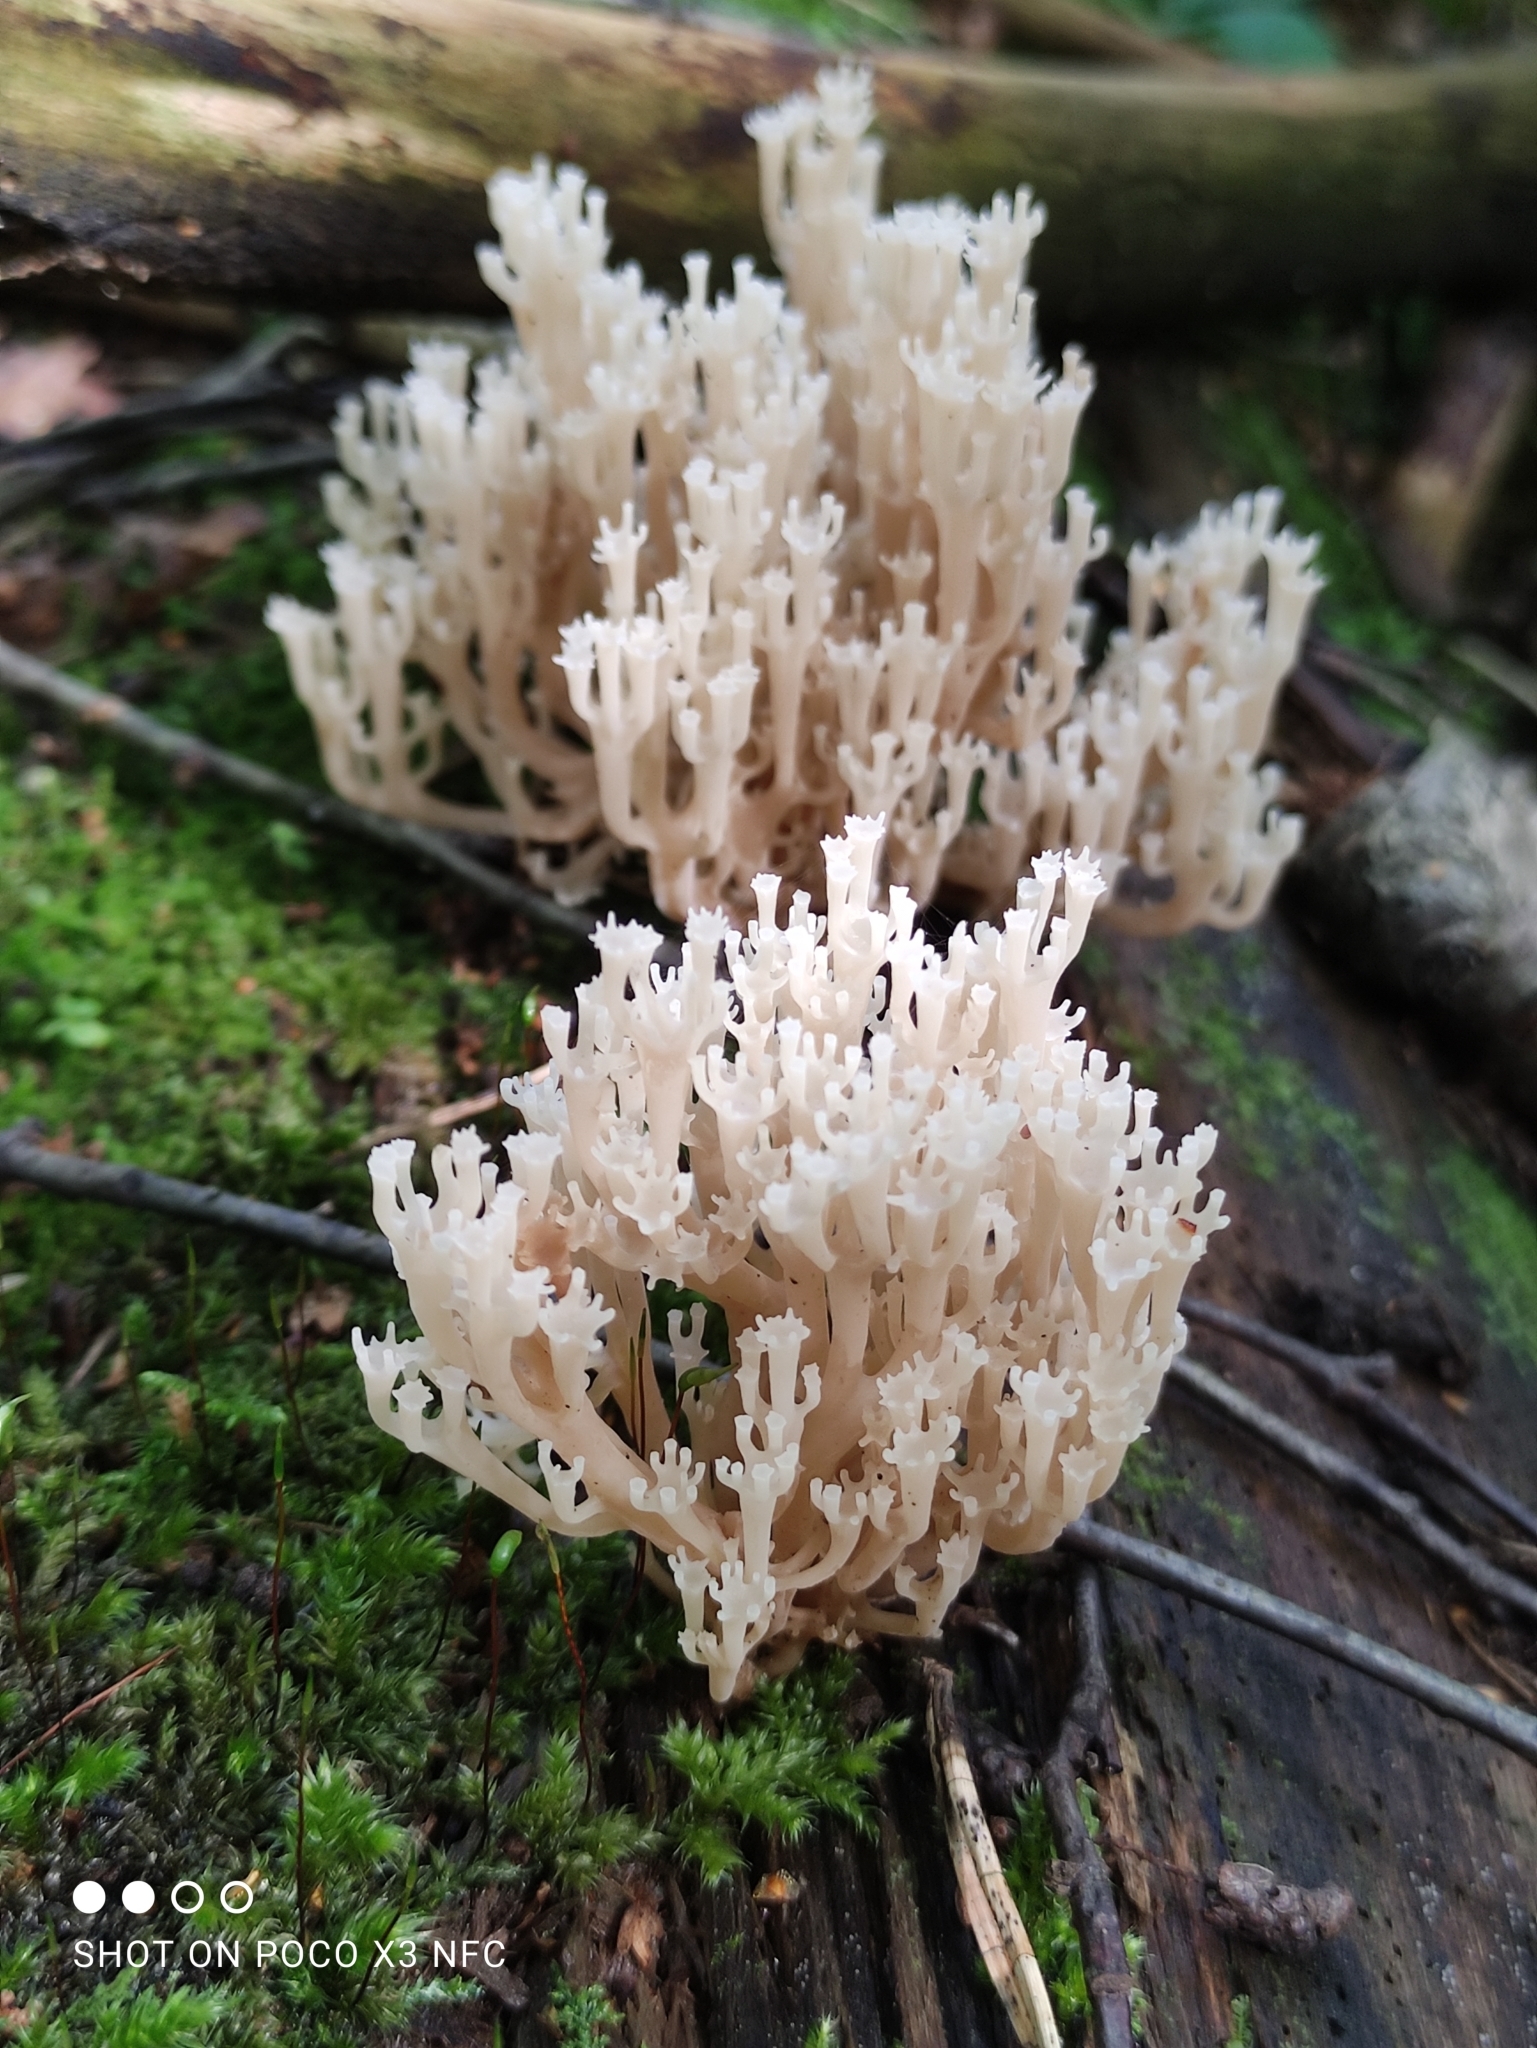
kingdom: Fungi
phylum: Basidiomycota
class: Agaricomycetes
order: Russulales
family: Auriscalpiaceae
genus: Artomyces
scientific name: Artomyces pyxidatus
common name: Crown-tipped coral fungus
